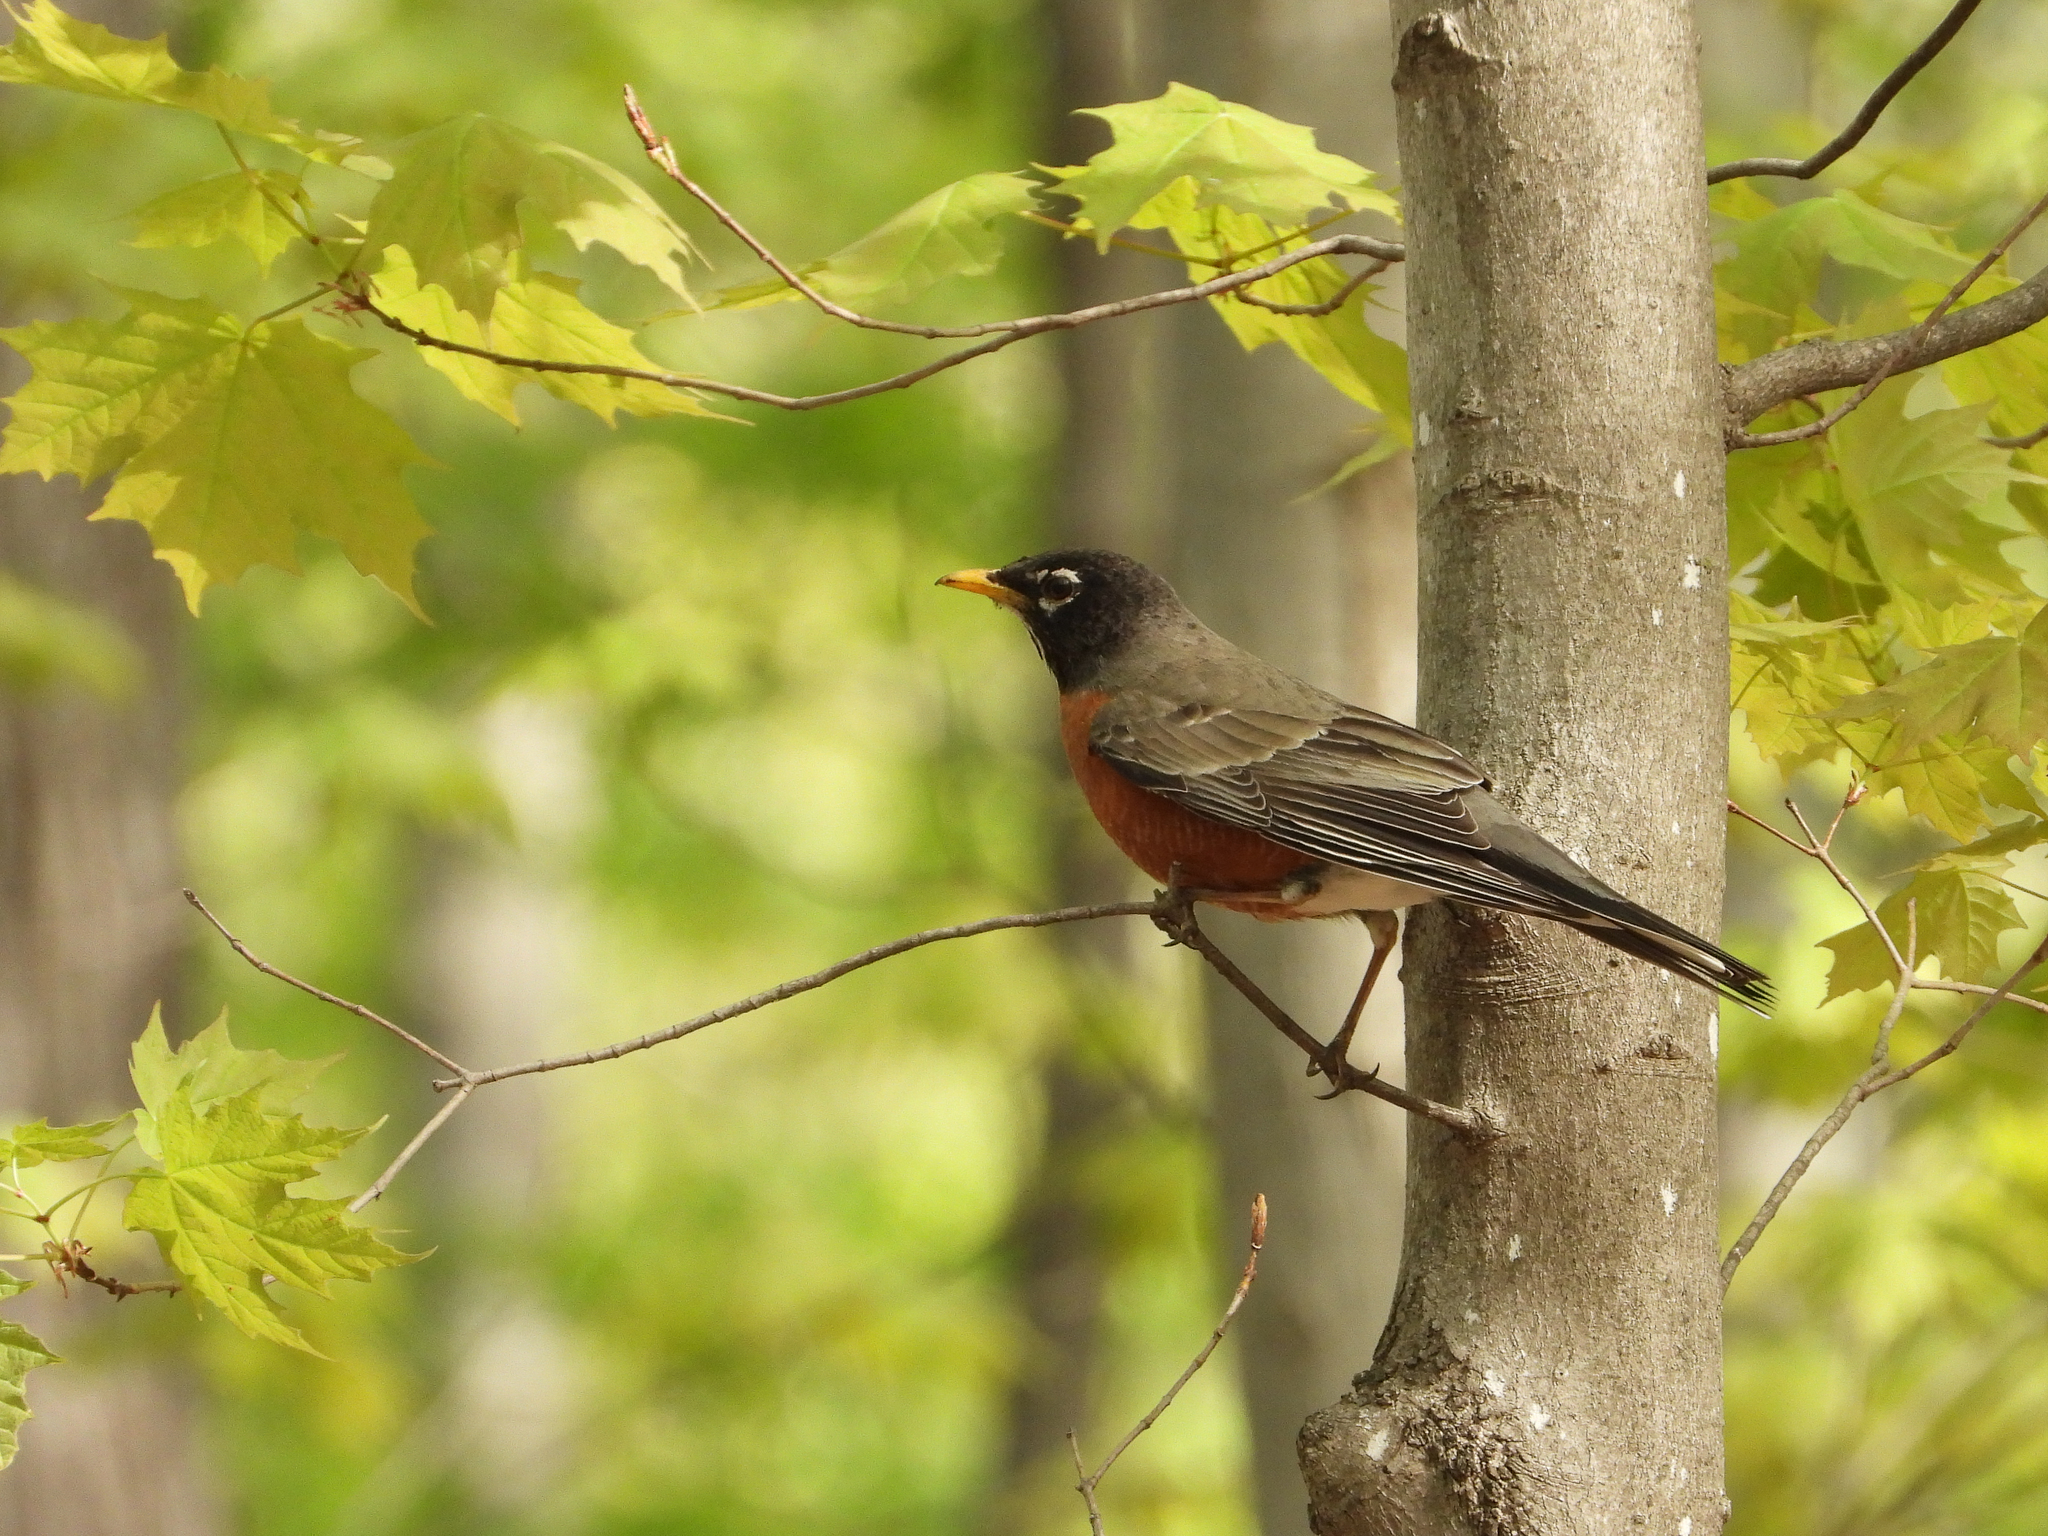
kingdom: Animalia
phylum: Chordata
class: Aves
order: Passeriformes
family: Turdidae
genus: Turdus
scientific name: Turdus migratorius
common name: American robin
